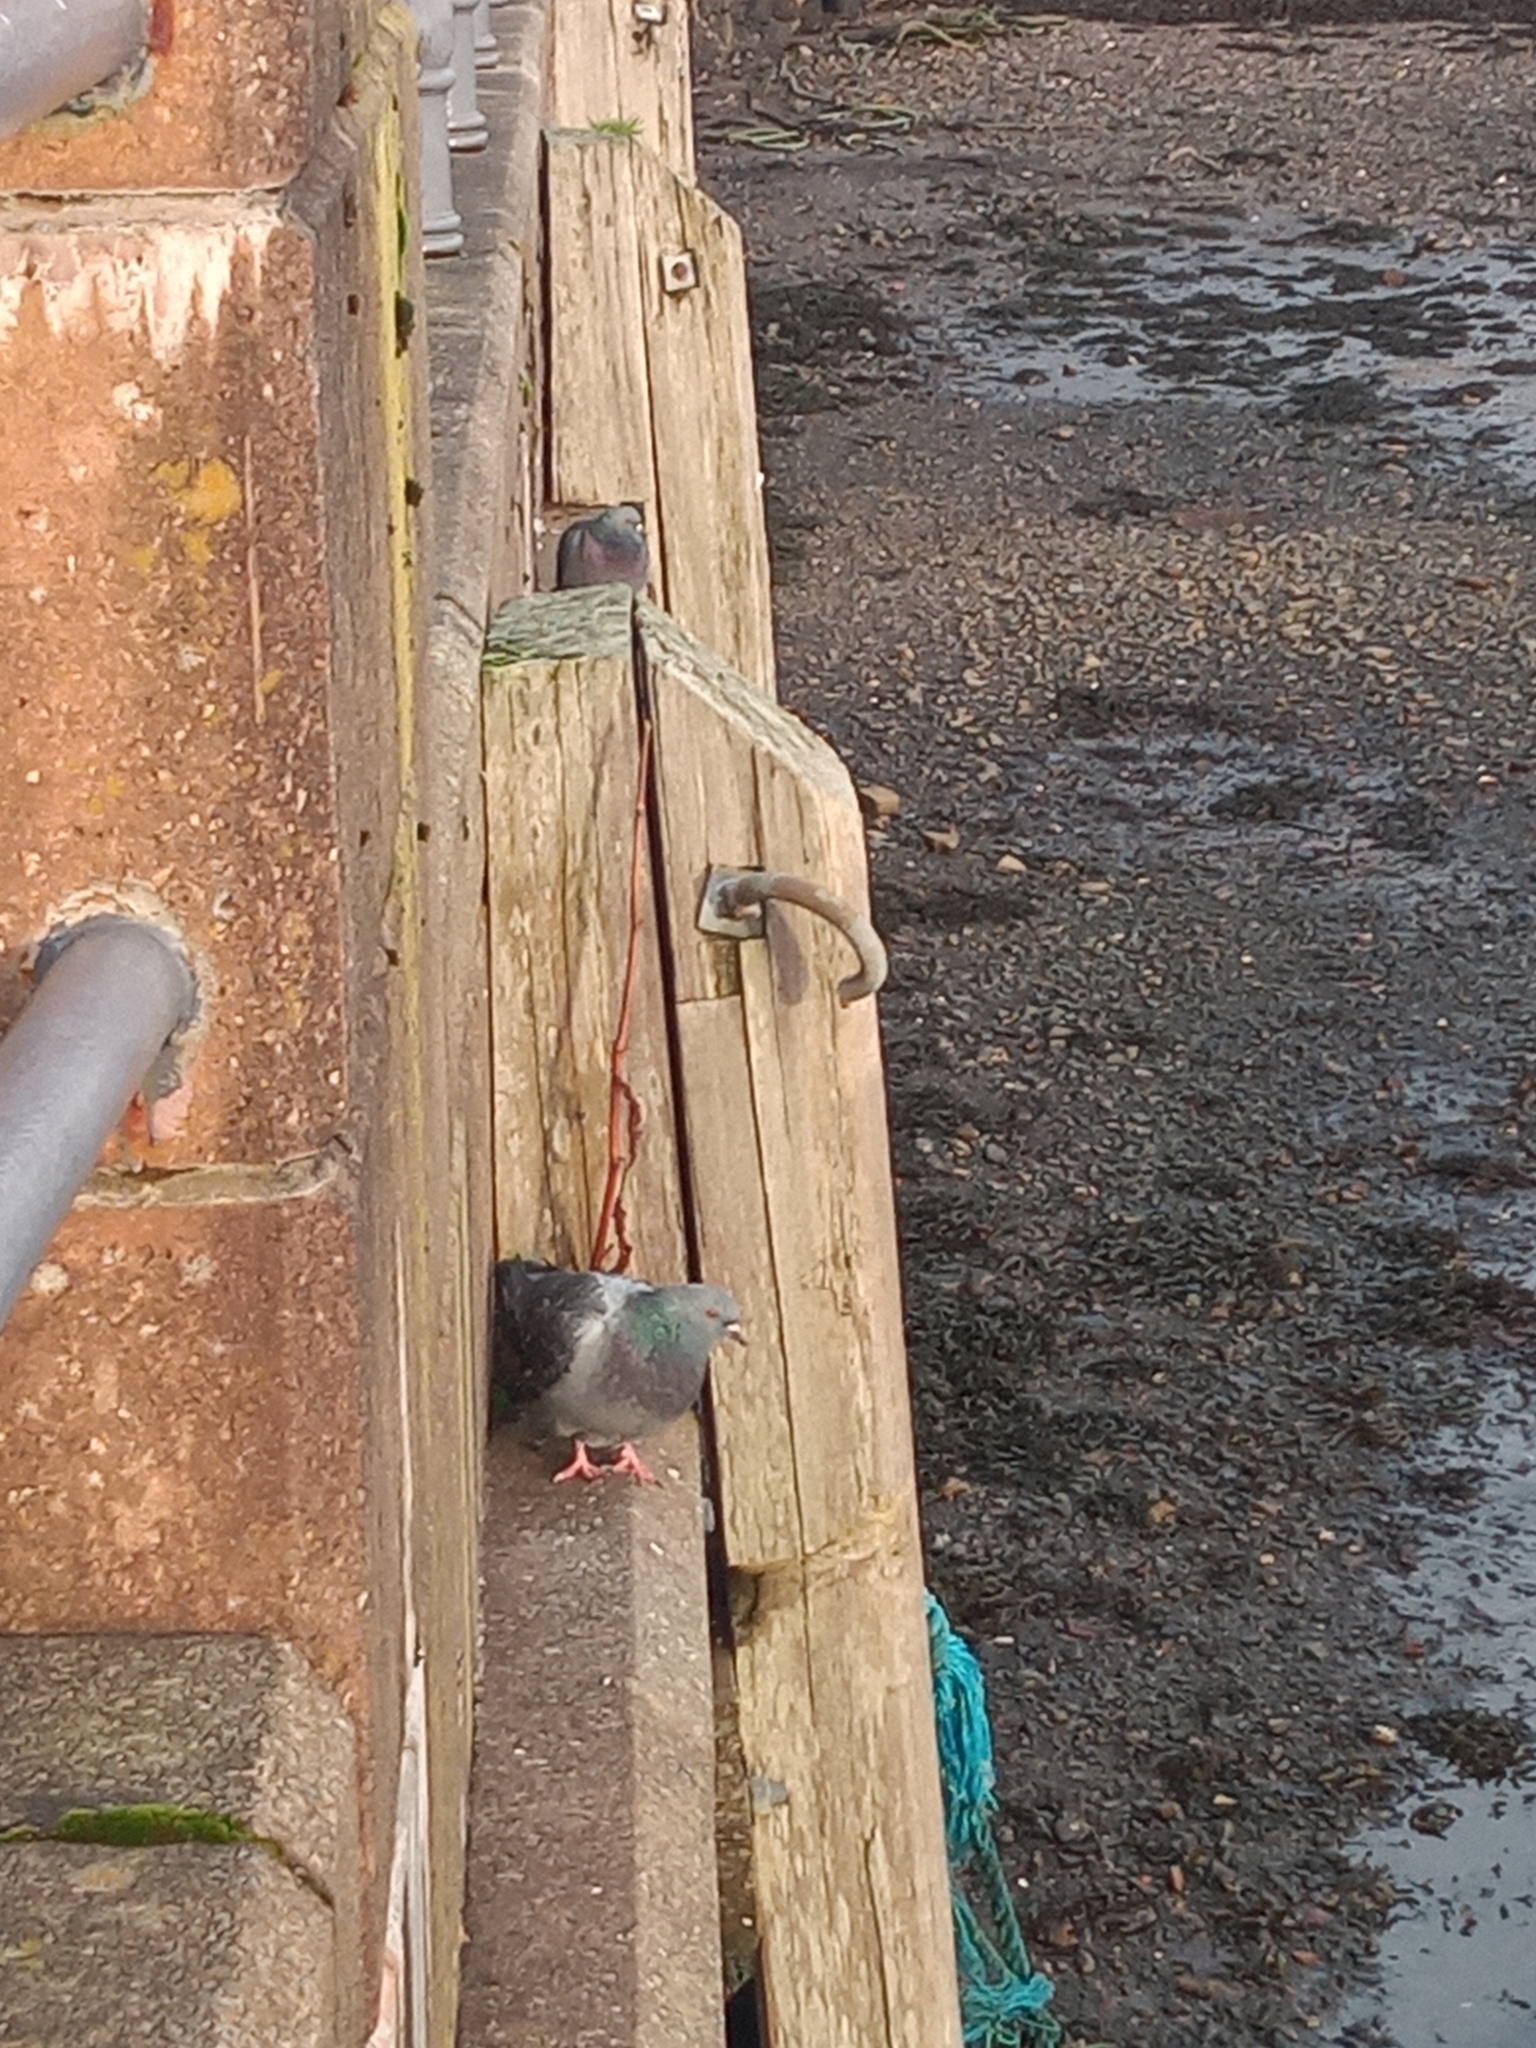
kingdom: Animalia
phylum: Chordata
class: Aves
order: Columbiformes
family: Columbidae
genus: Columba
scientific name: Columba livia
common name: Rock pigeon
